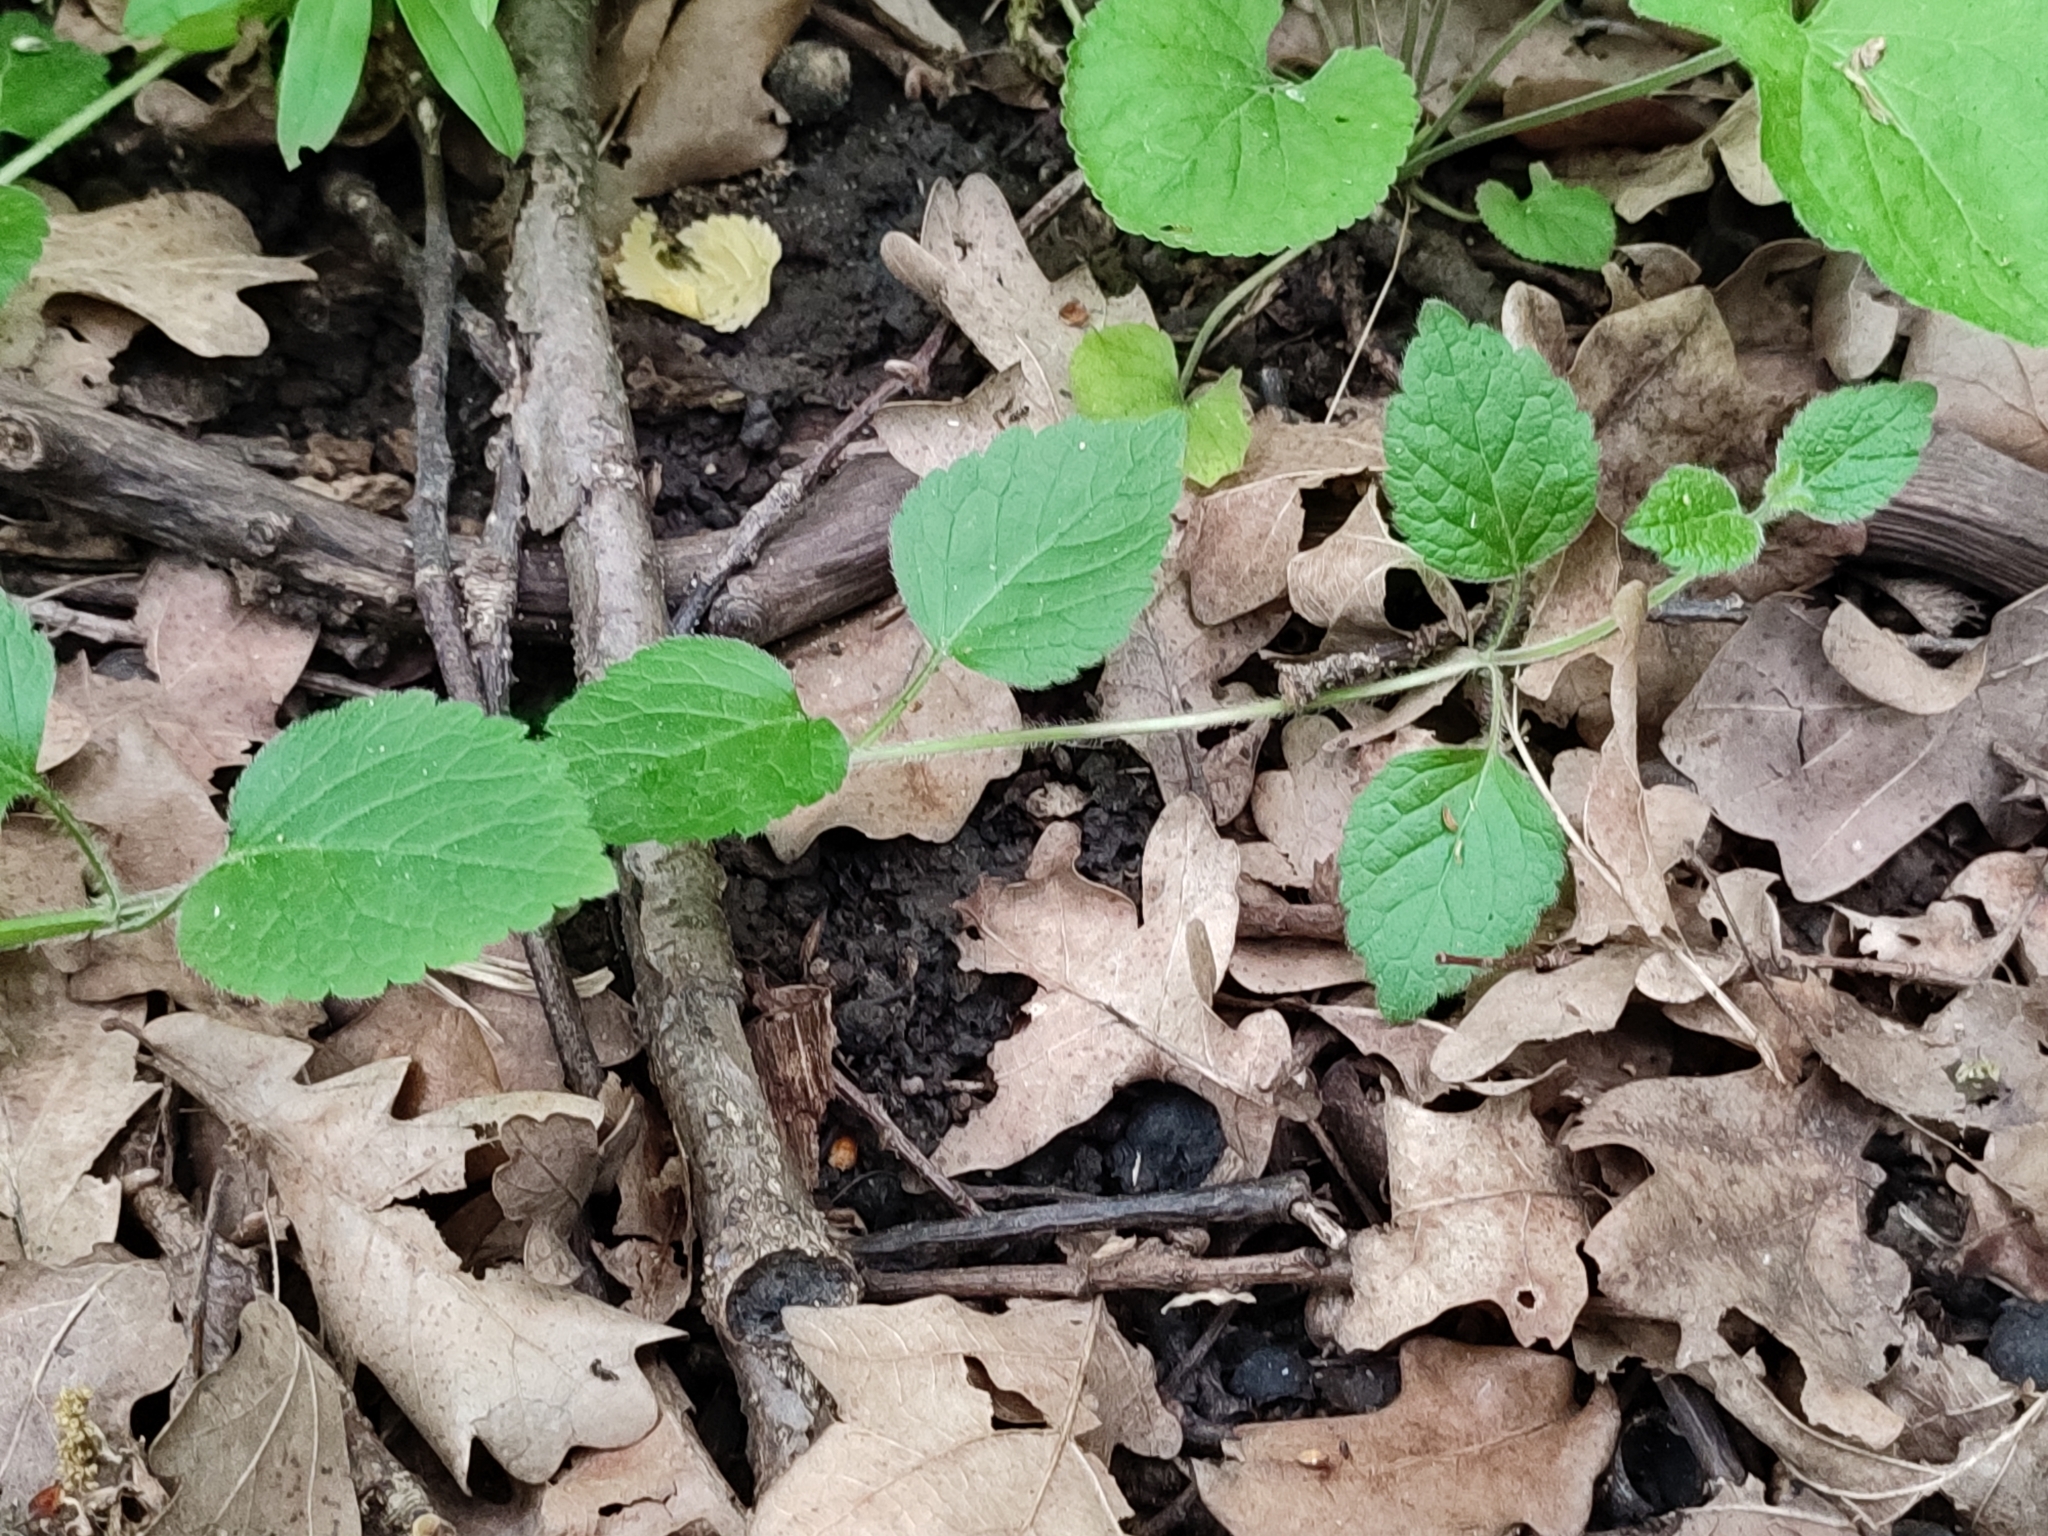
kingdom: Plantae
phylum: Tracheophyta
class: Magnoliopsida
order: Lamiales
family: Lamiaceae
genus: Lamium
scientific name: Lamium galeobdolon
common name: Yellow archangel
